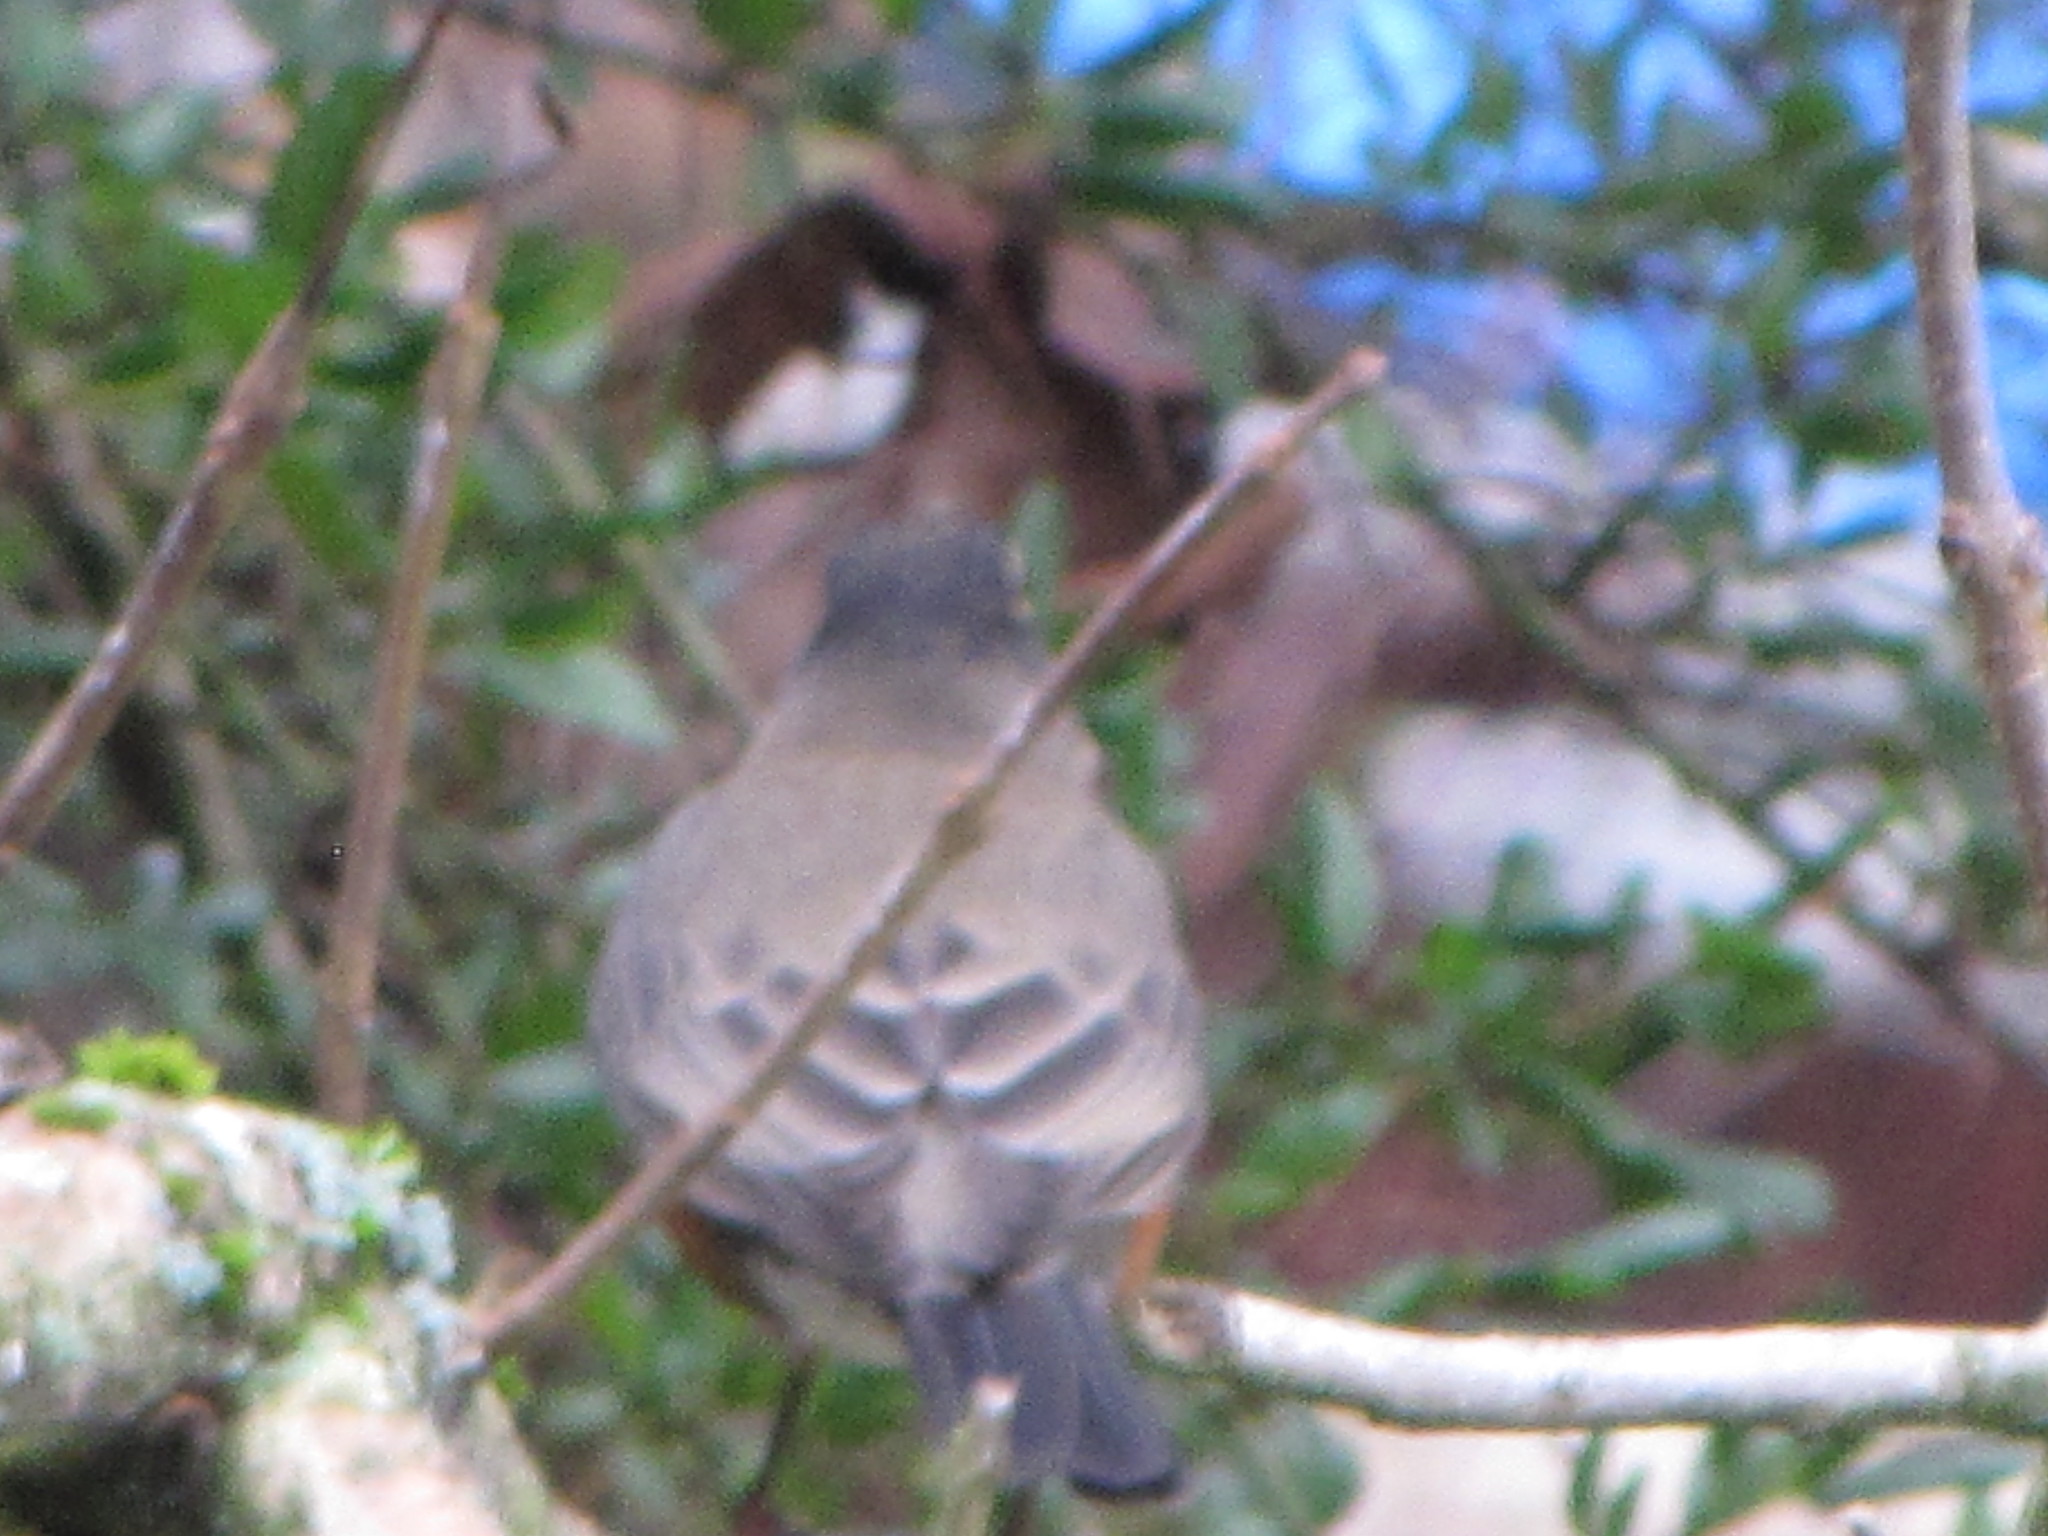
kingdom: Animalia
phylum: Chordata
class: Aves
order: Passeriformes
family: Turdidae
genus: Turdus
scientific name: Turdus migratorius
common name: American robin
